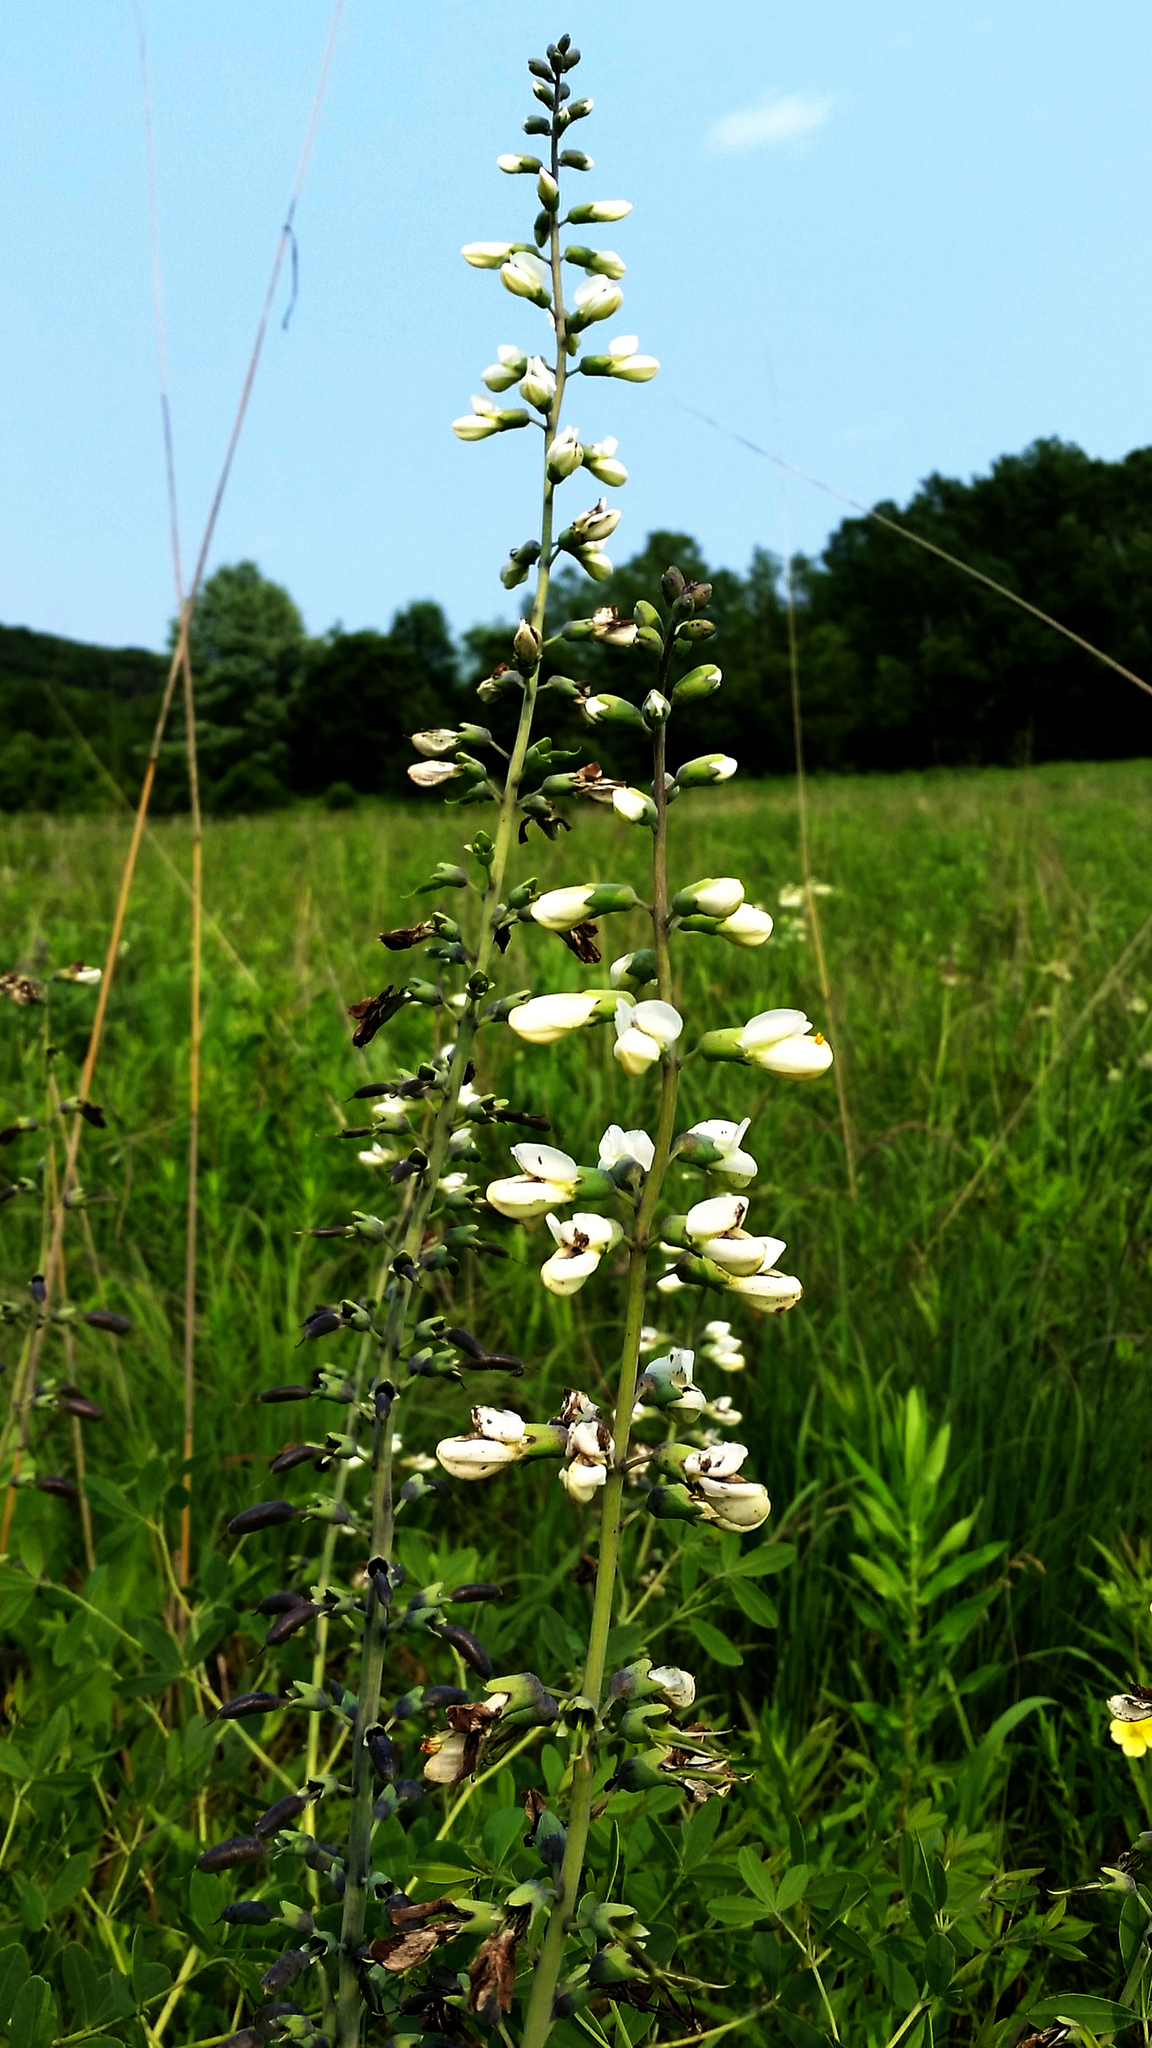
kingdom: Plantae
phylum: Tracheophyta
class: Magnoliopsida
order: Fabales
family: Fabaceae
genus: Baptisia
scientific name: Baptisia alba
